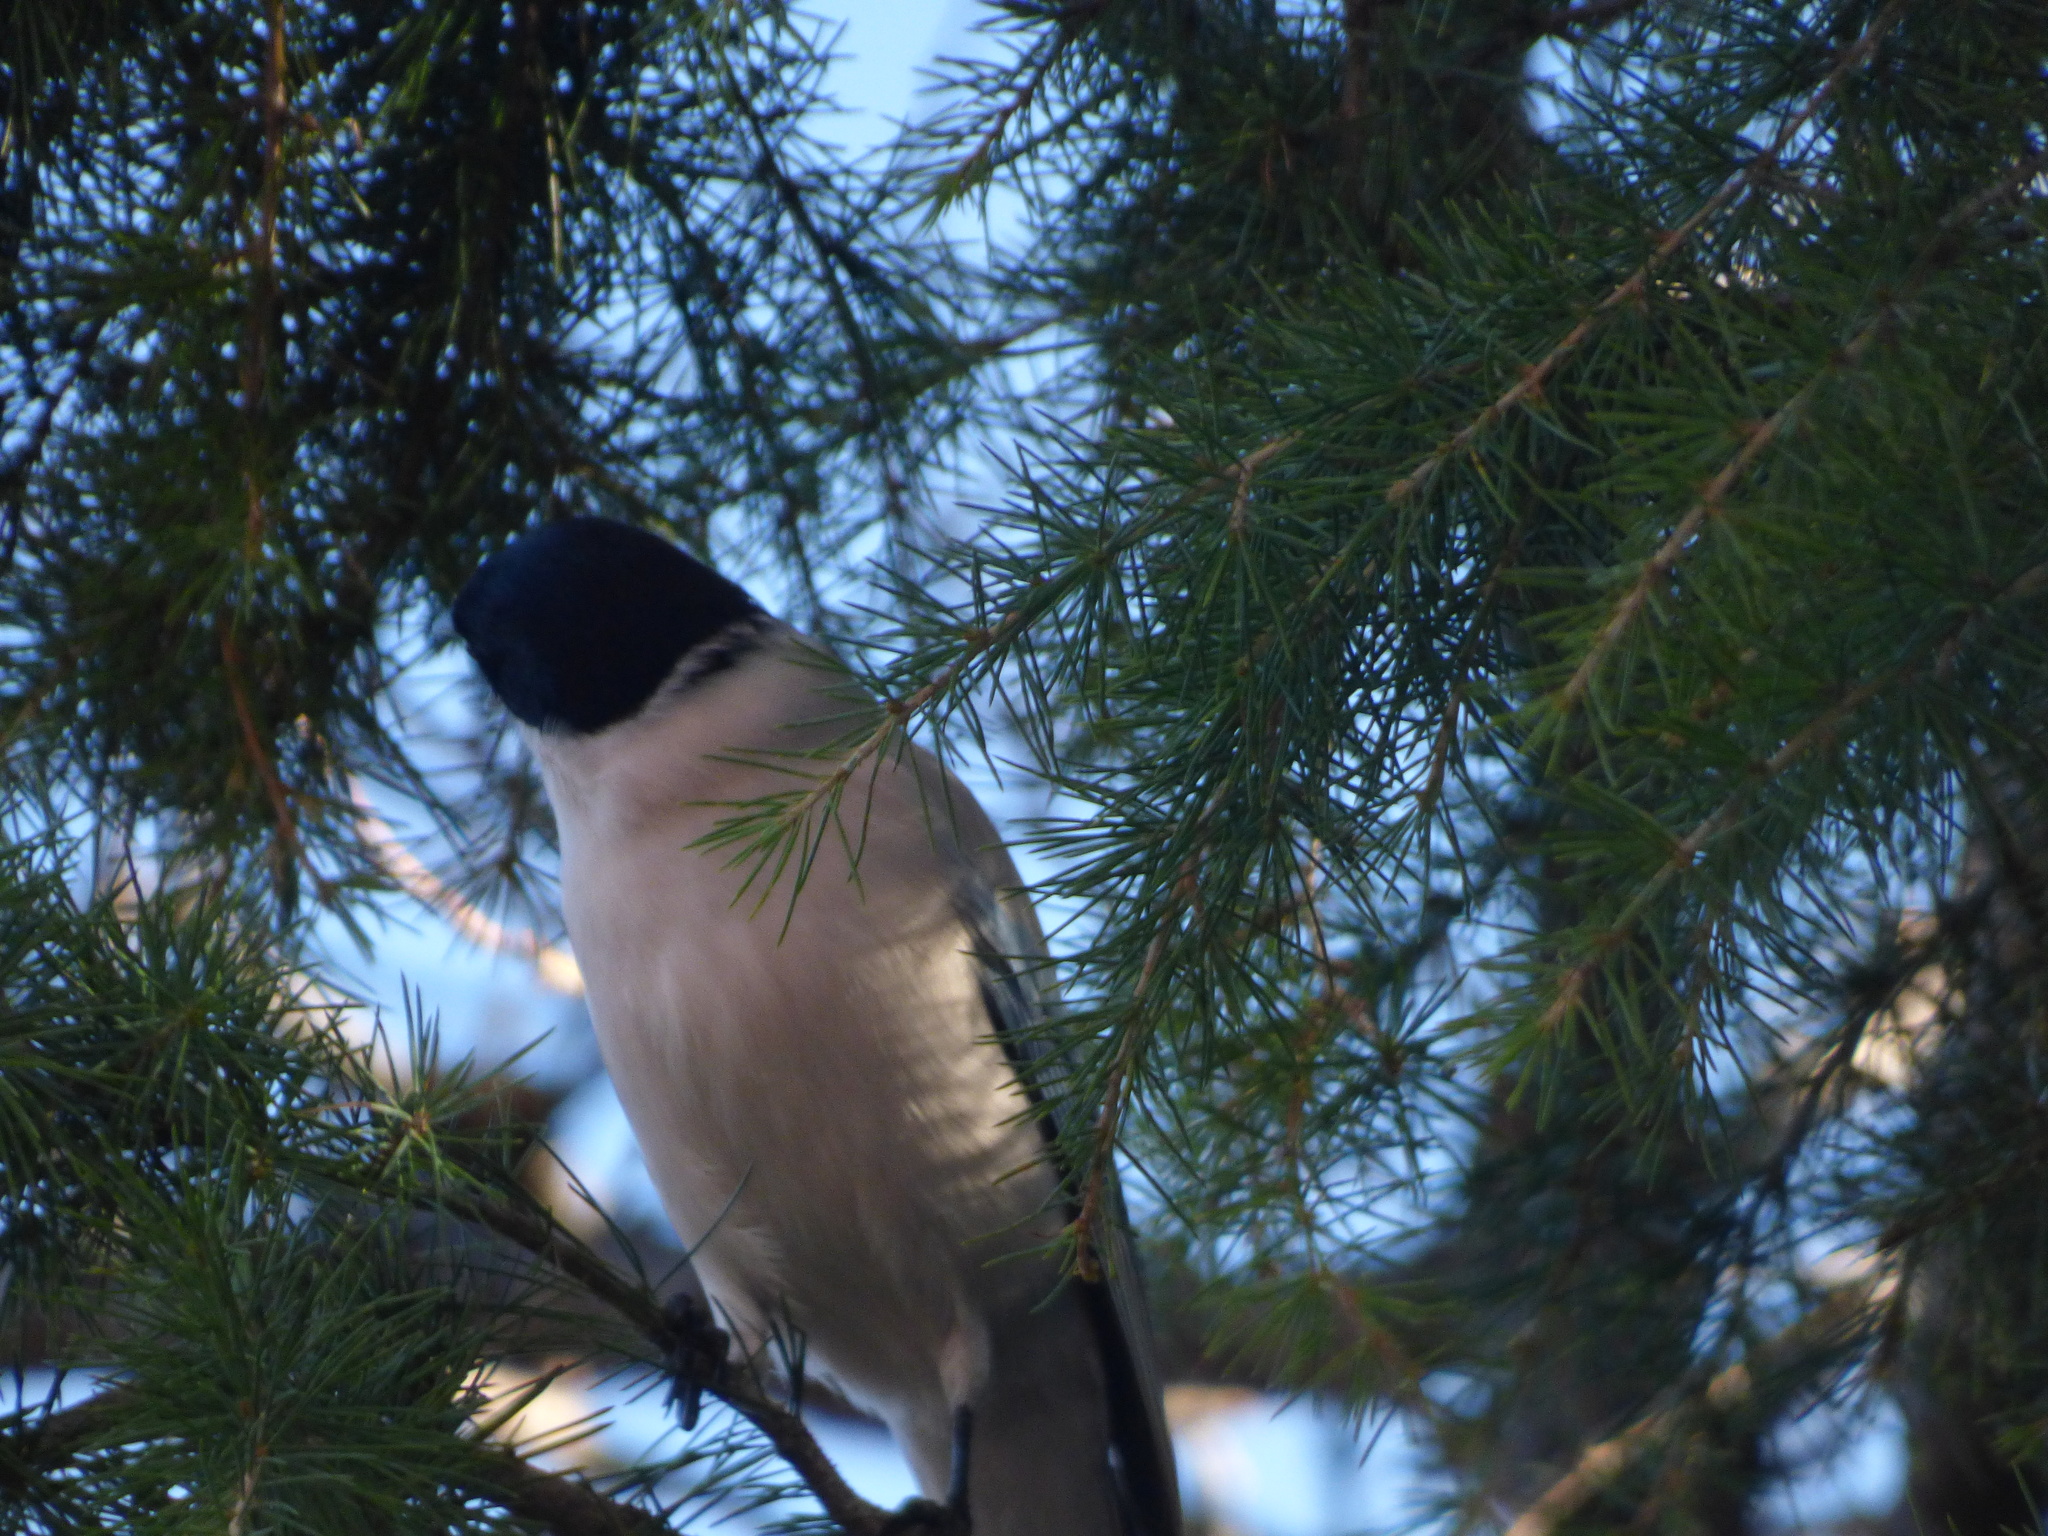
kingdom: Animalia
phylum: Chordata
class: Aves
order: Passeriformes
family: Corvidae
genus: Cyanopica
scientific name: Cyanopica cyanus
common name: Azure-winged magpie
